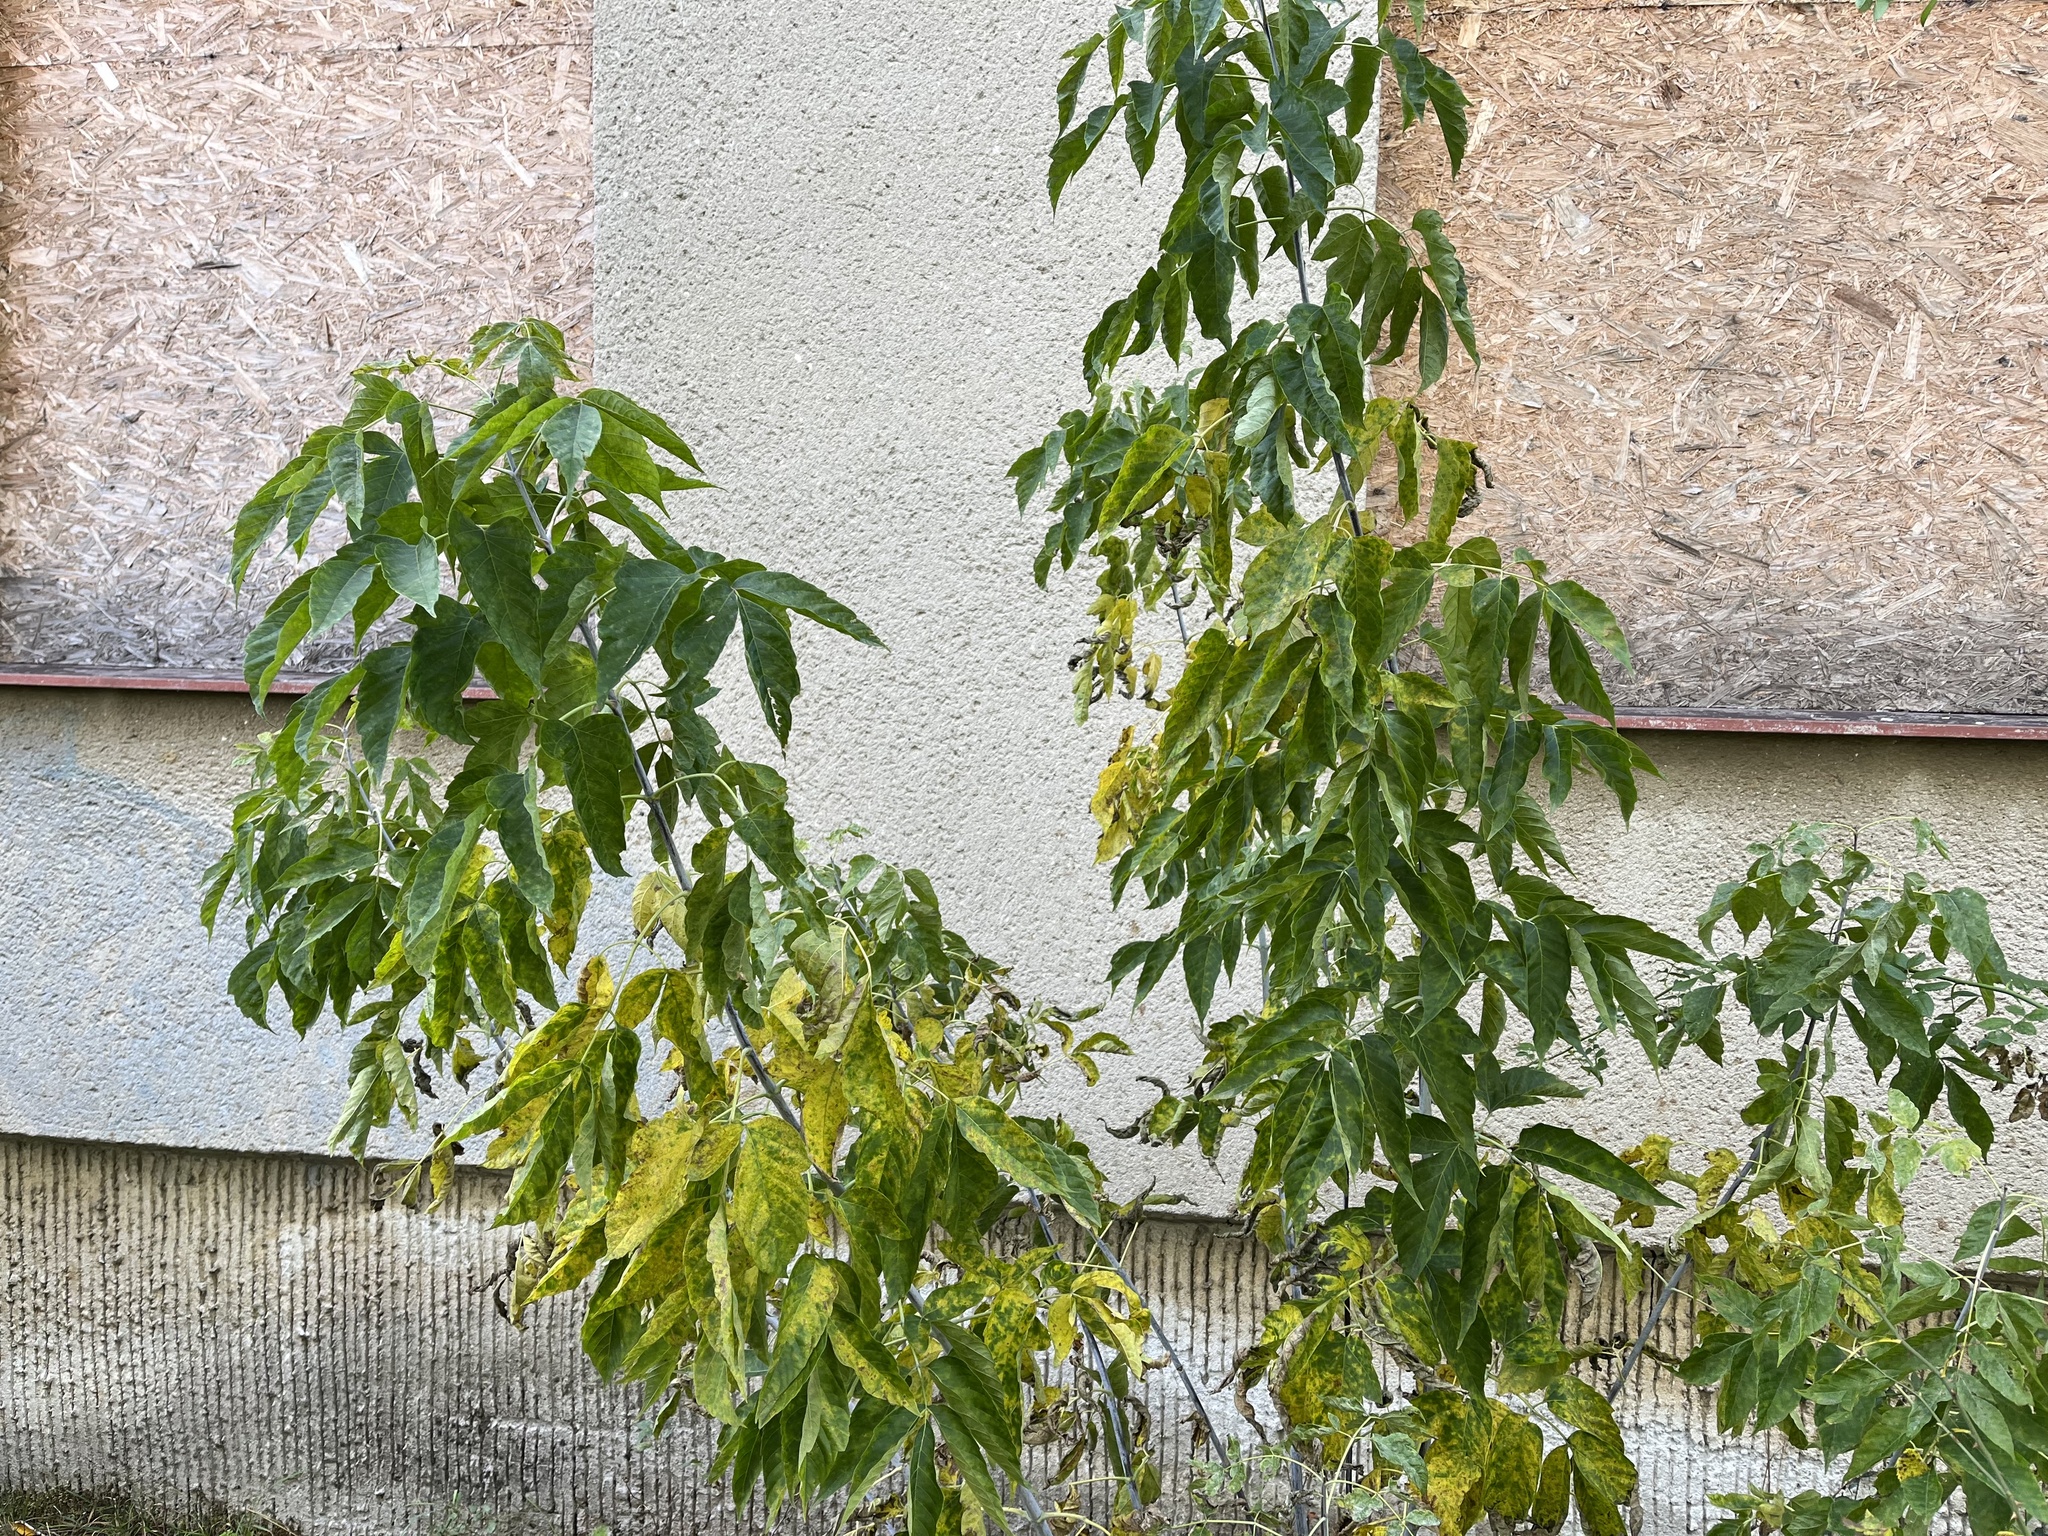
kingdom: Plantae
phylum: Tracheophyta
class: Magnoliopsida
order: Sapindales
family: Sapindaceae
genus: Acer
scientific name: Acer negundo
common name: Ashleaf maple
